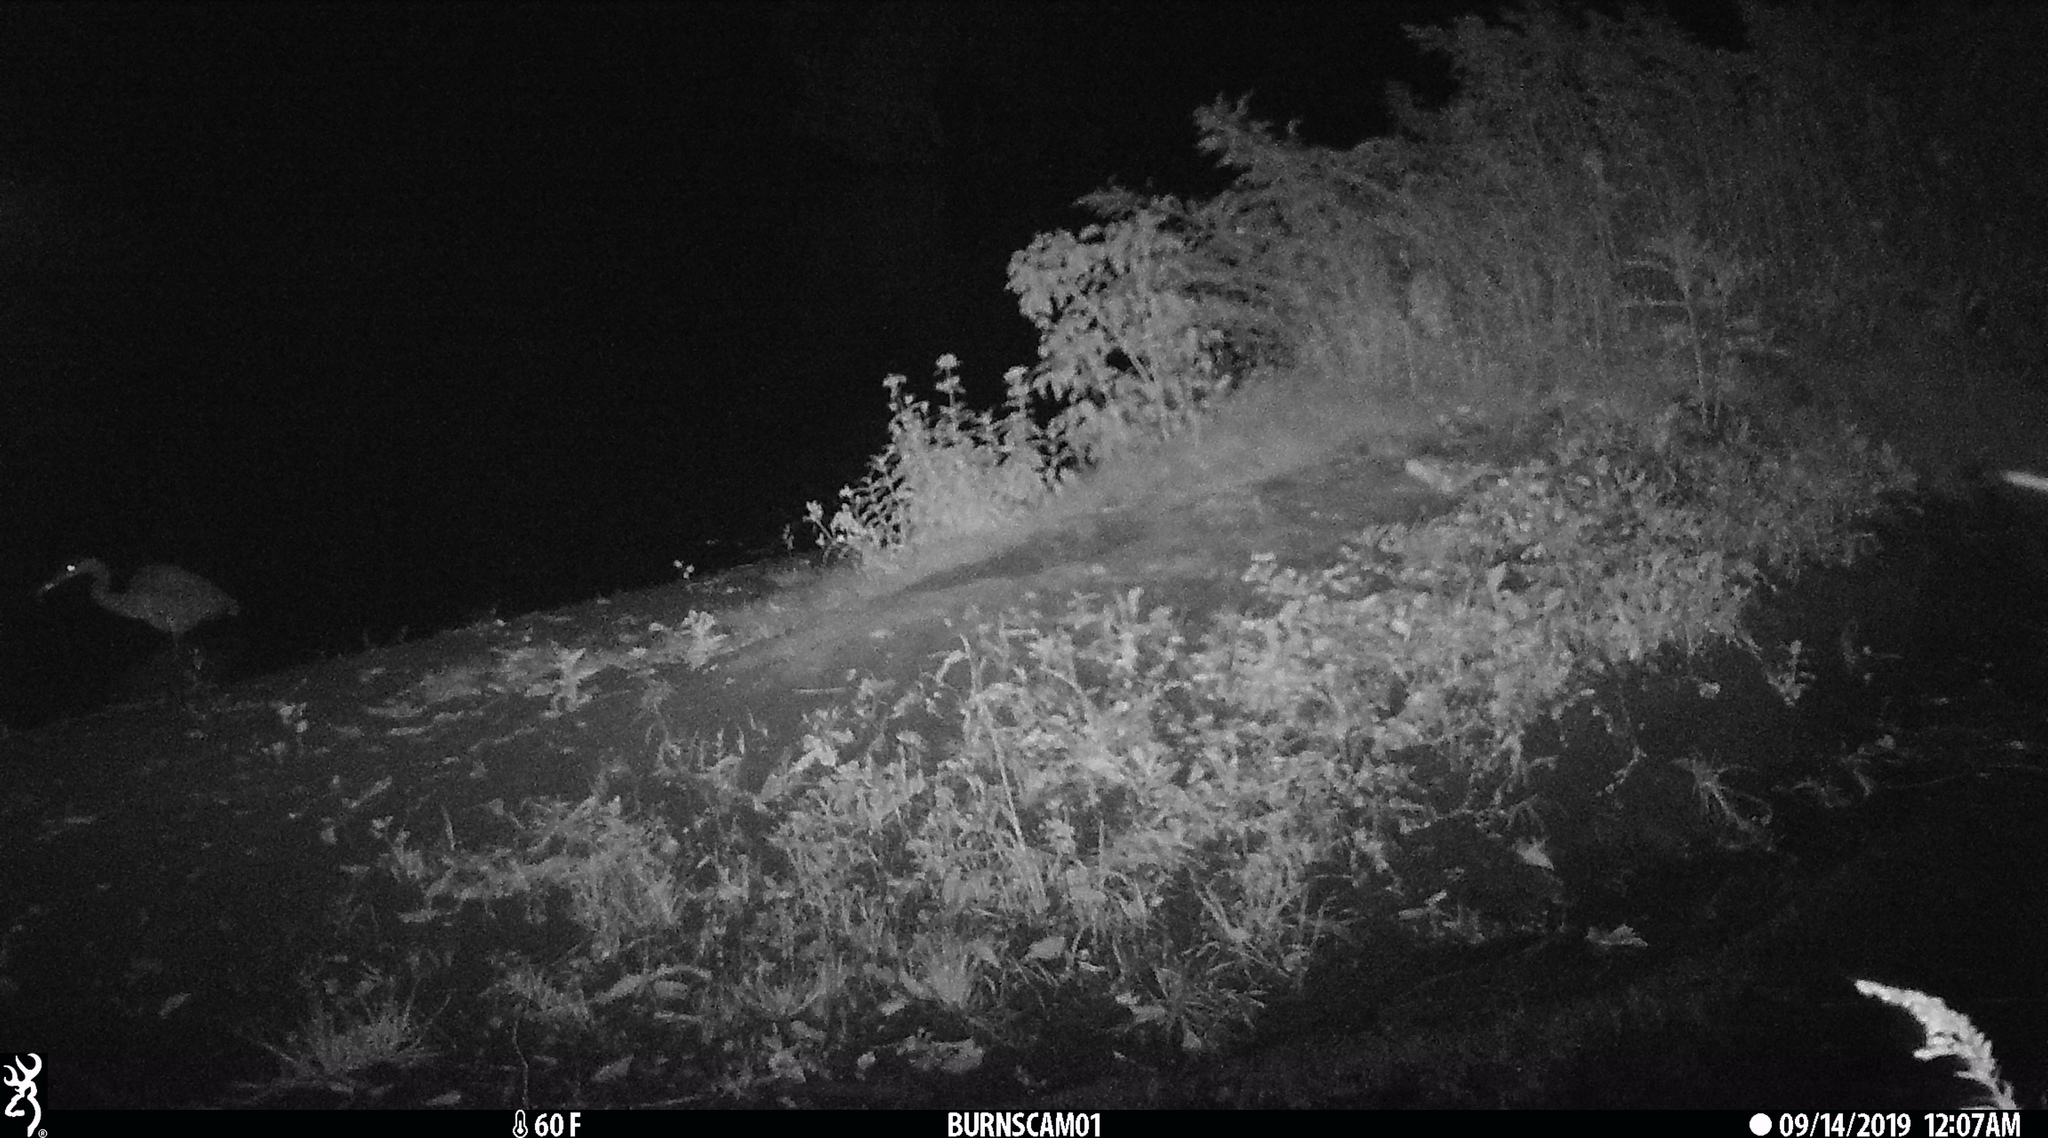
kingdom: Animalia
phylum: Chordata
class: Aves
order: Pelecaniformes
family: Ardeidae
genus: Ardea
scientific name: Ardea herodias
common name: Great blue heron
